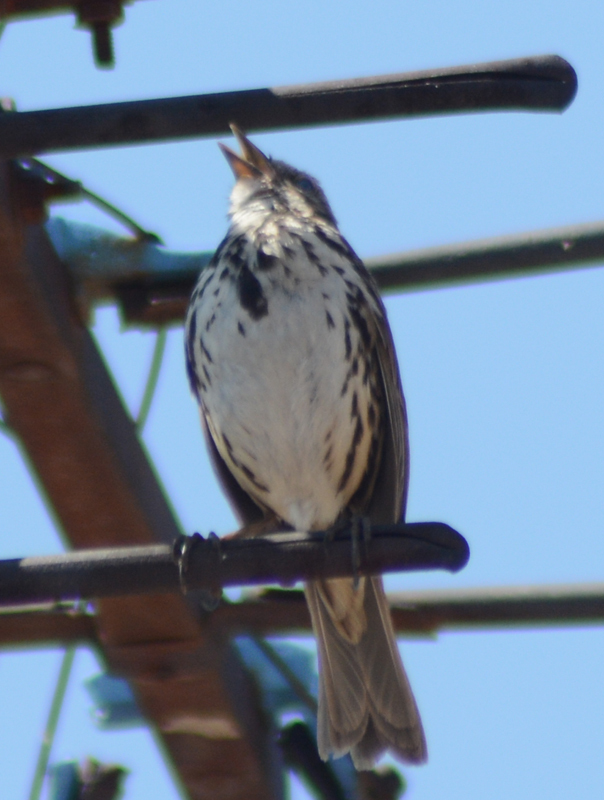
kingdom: Animalia
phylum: Chordata
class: Aves
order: Passeriformes
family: Passerellidae
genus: Melospiza
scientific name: Melospiza melodia
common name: Song sparrow
